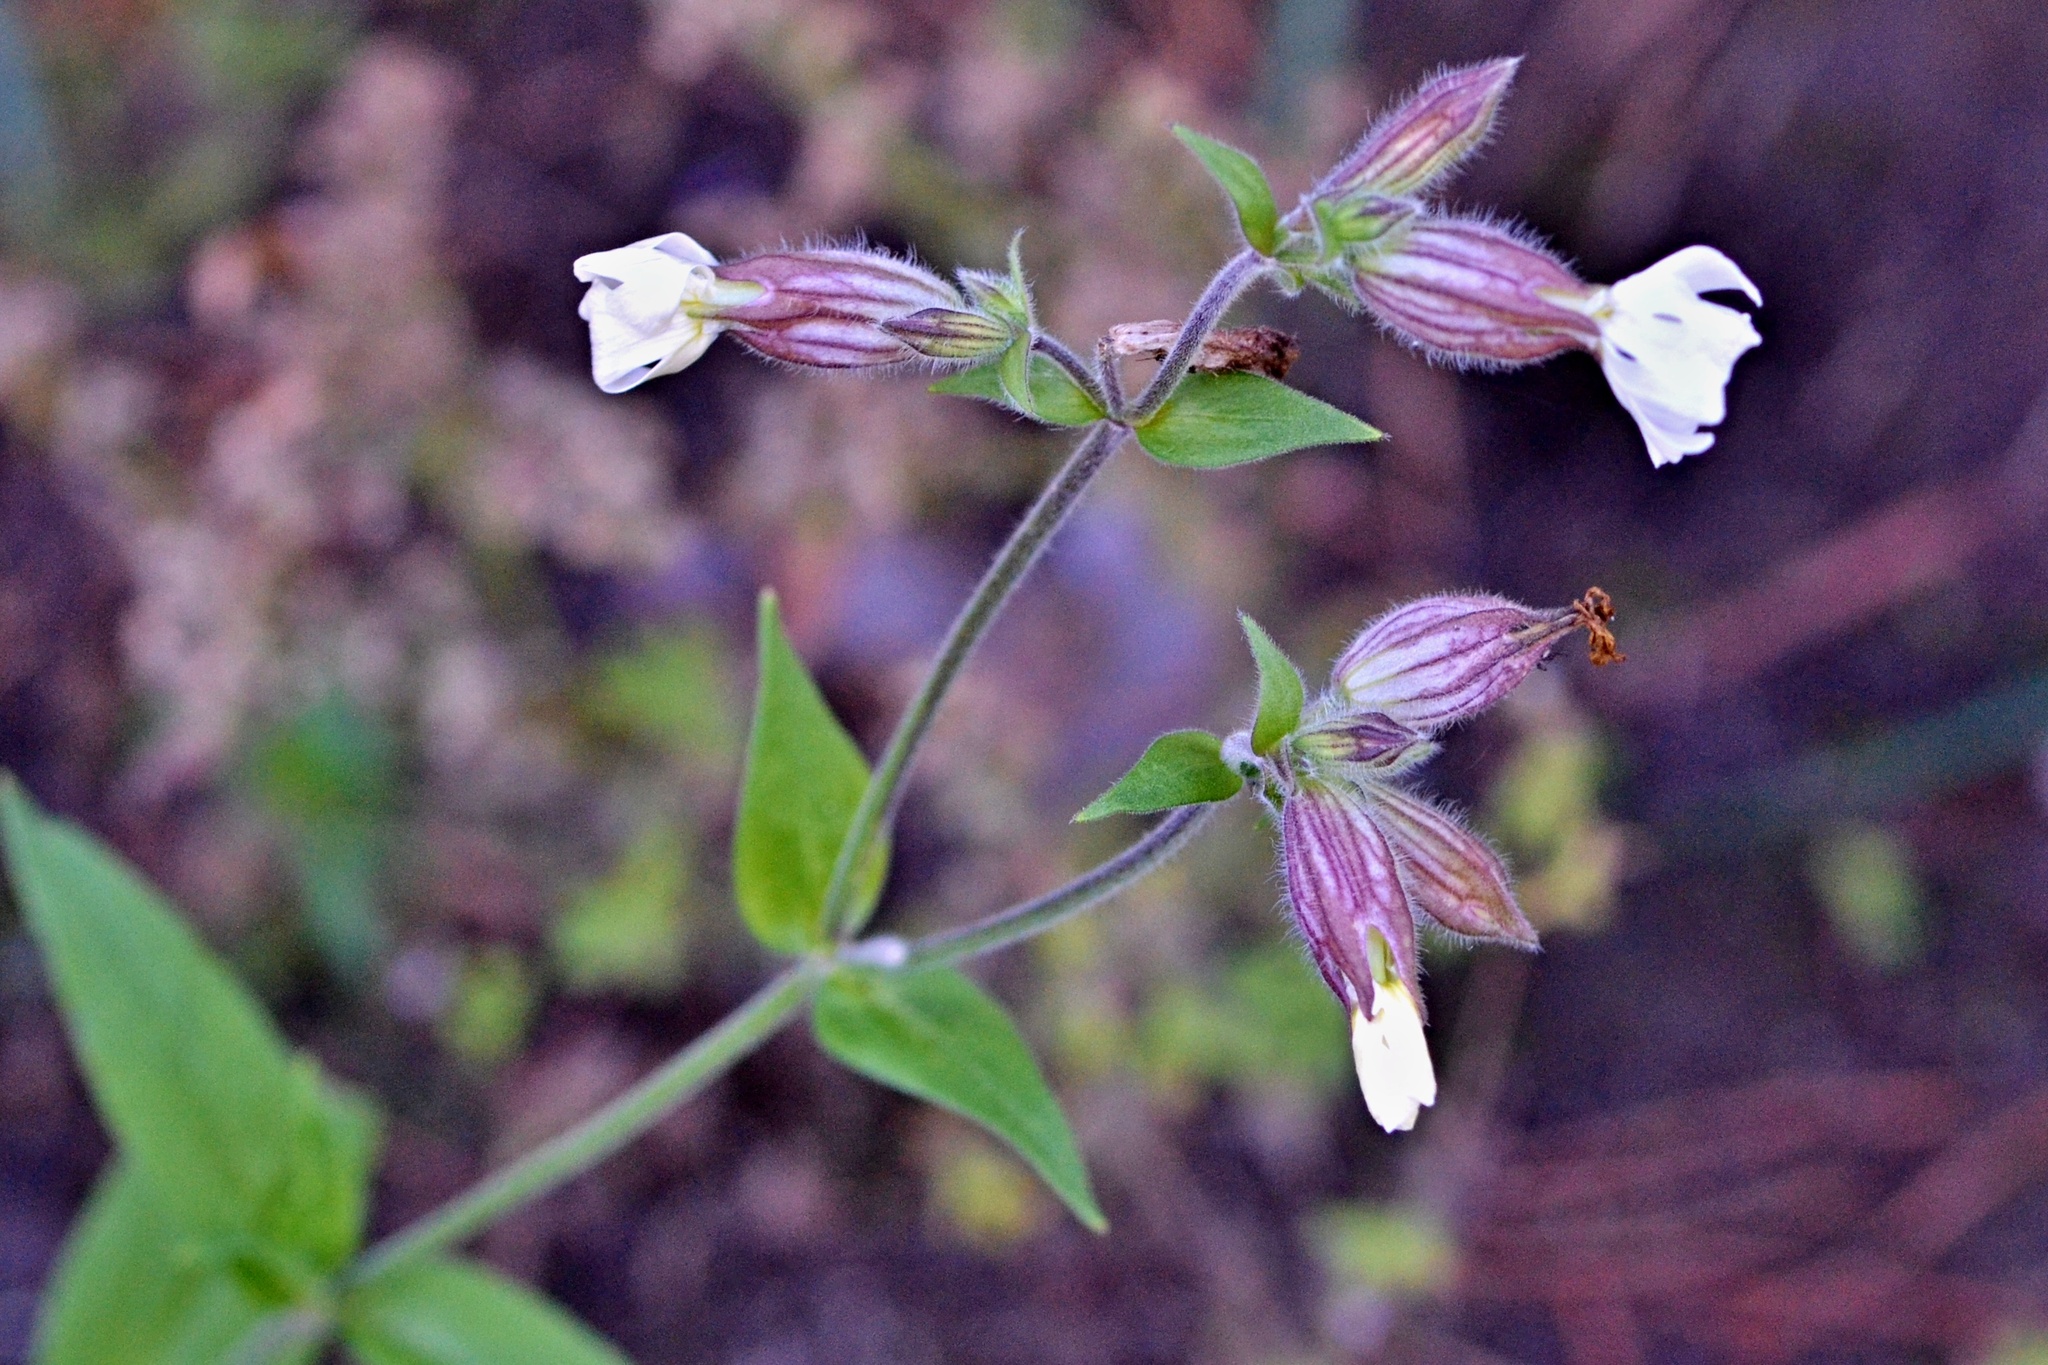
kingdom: Plantae
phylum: Tracheophyta
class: Magnoliopsida
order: Caryophyllales
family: Caryophyllaceae
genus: Silene
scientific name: Silene latifolia
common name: White campion
